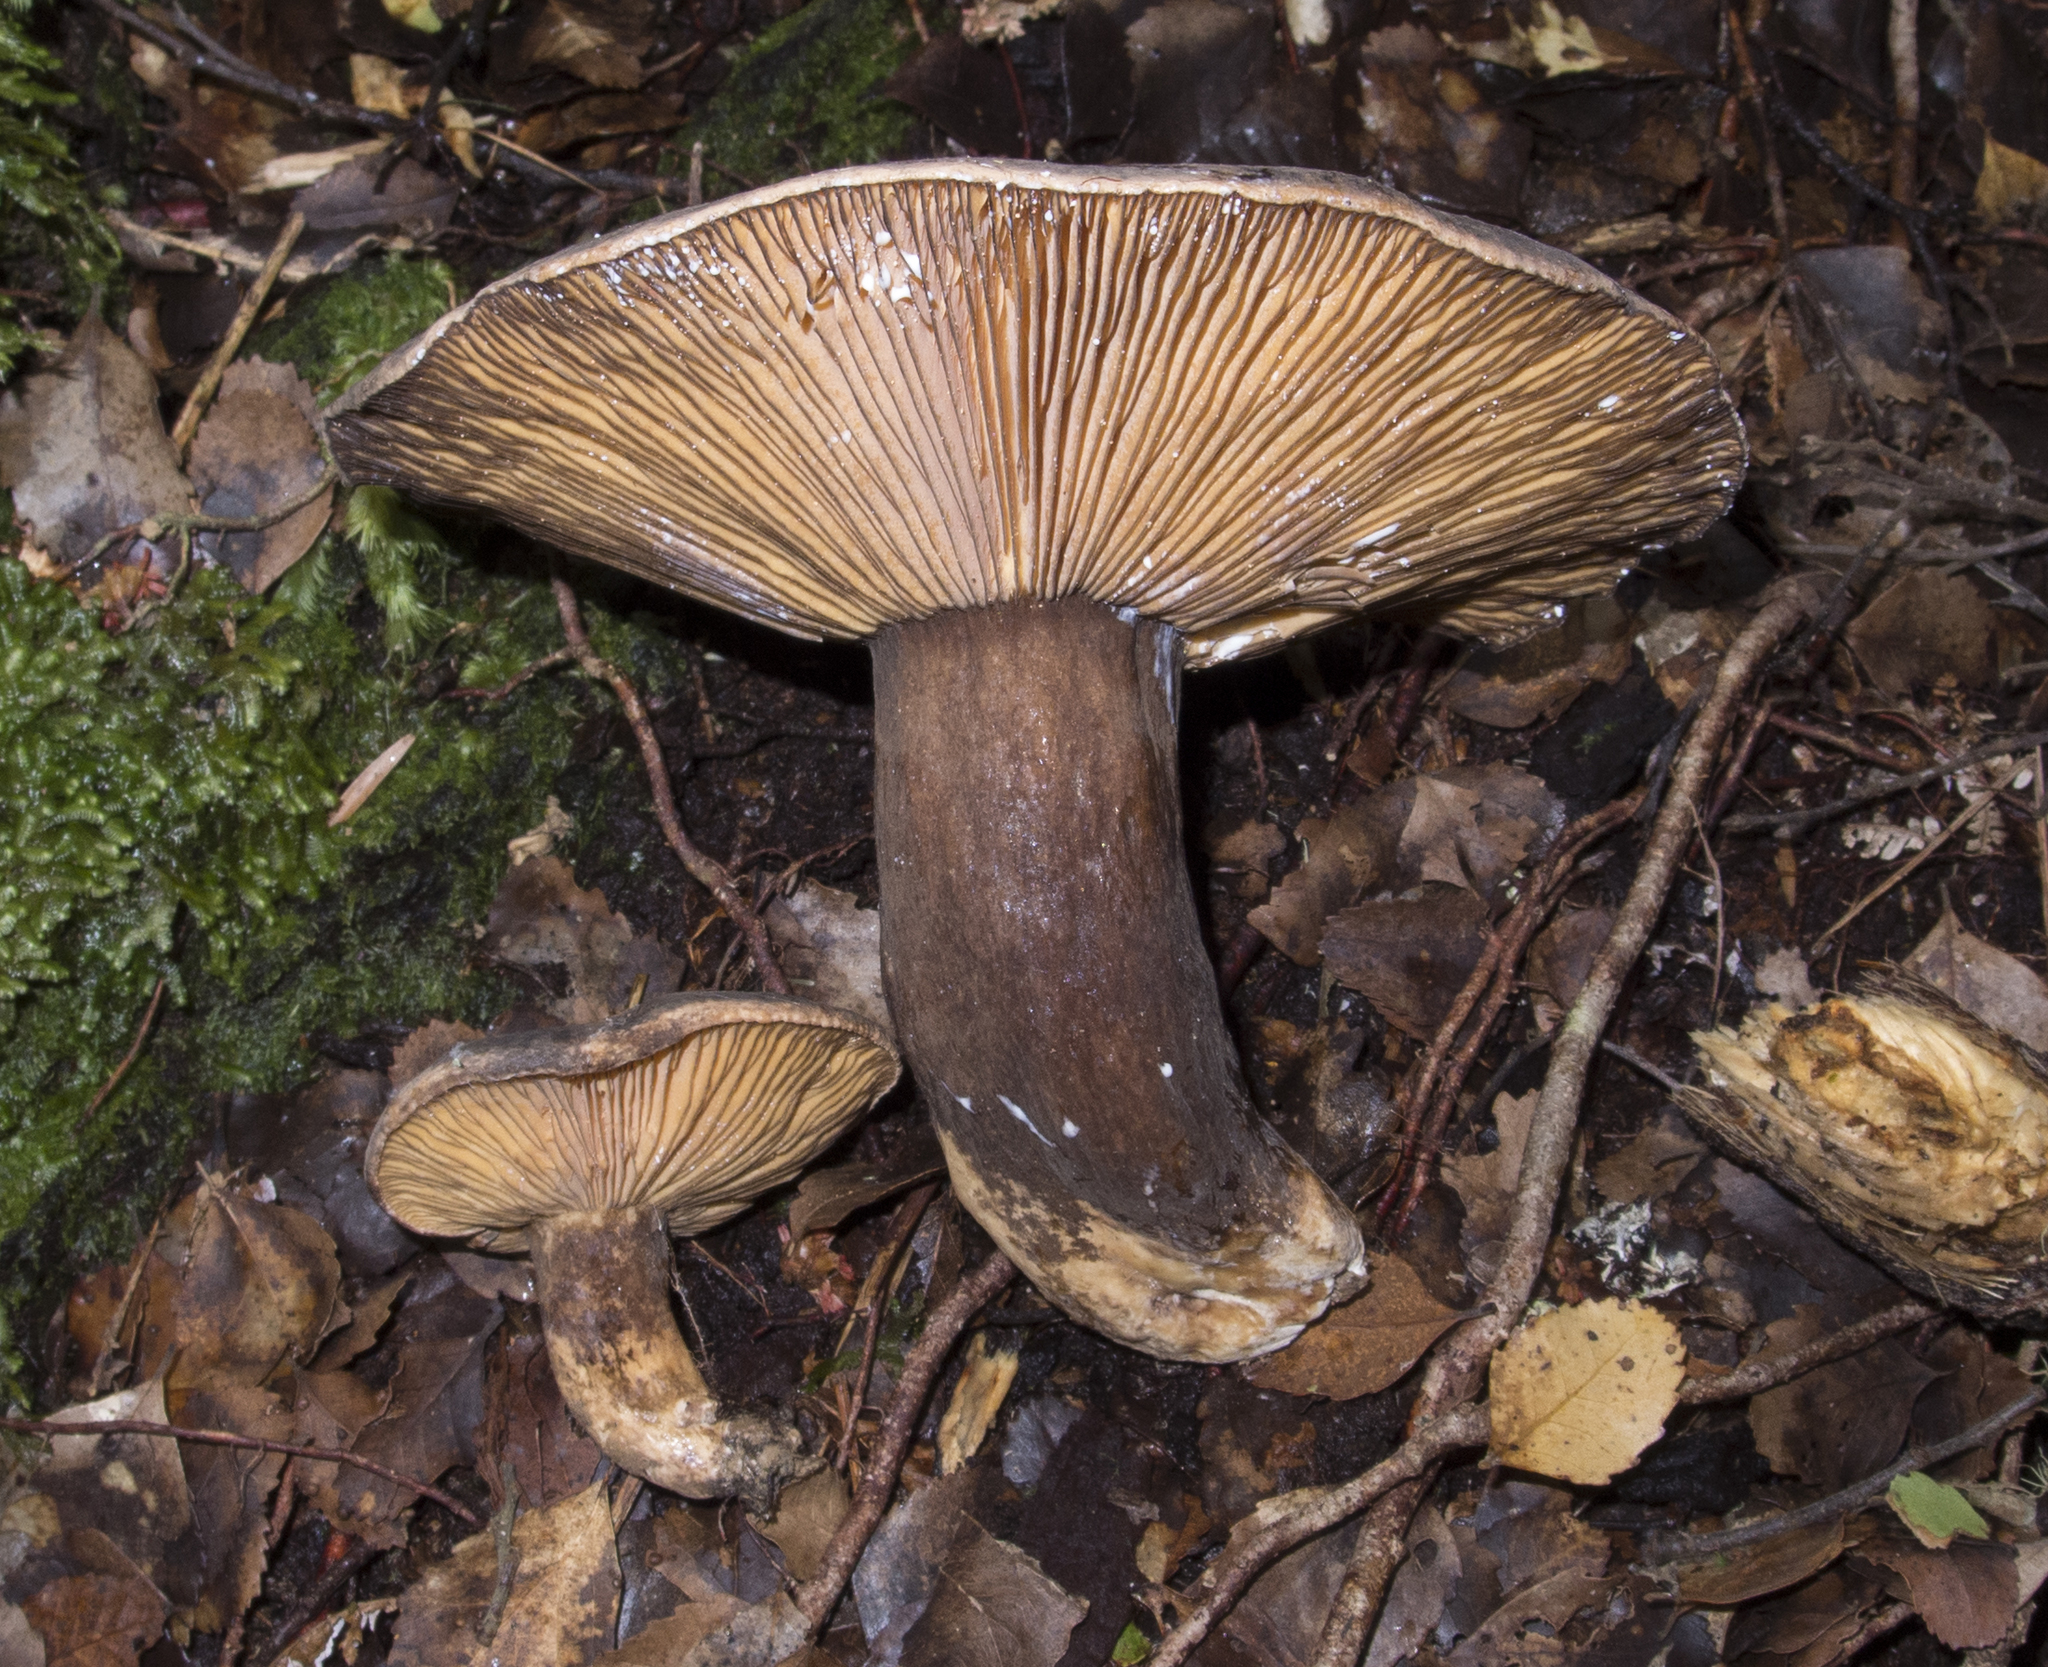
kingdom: Fungi
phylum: Basidiomycota
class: Agaricomycetes
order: Russulales
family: Russulaceae
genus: Lactarius
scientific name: Lactarius novae-zelandiae
